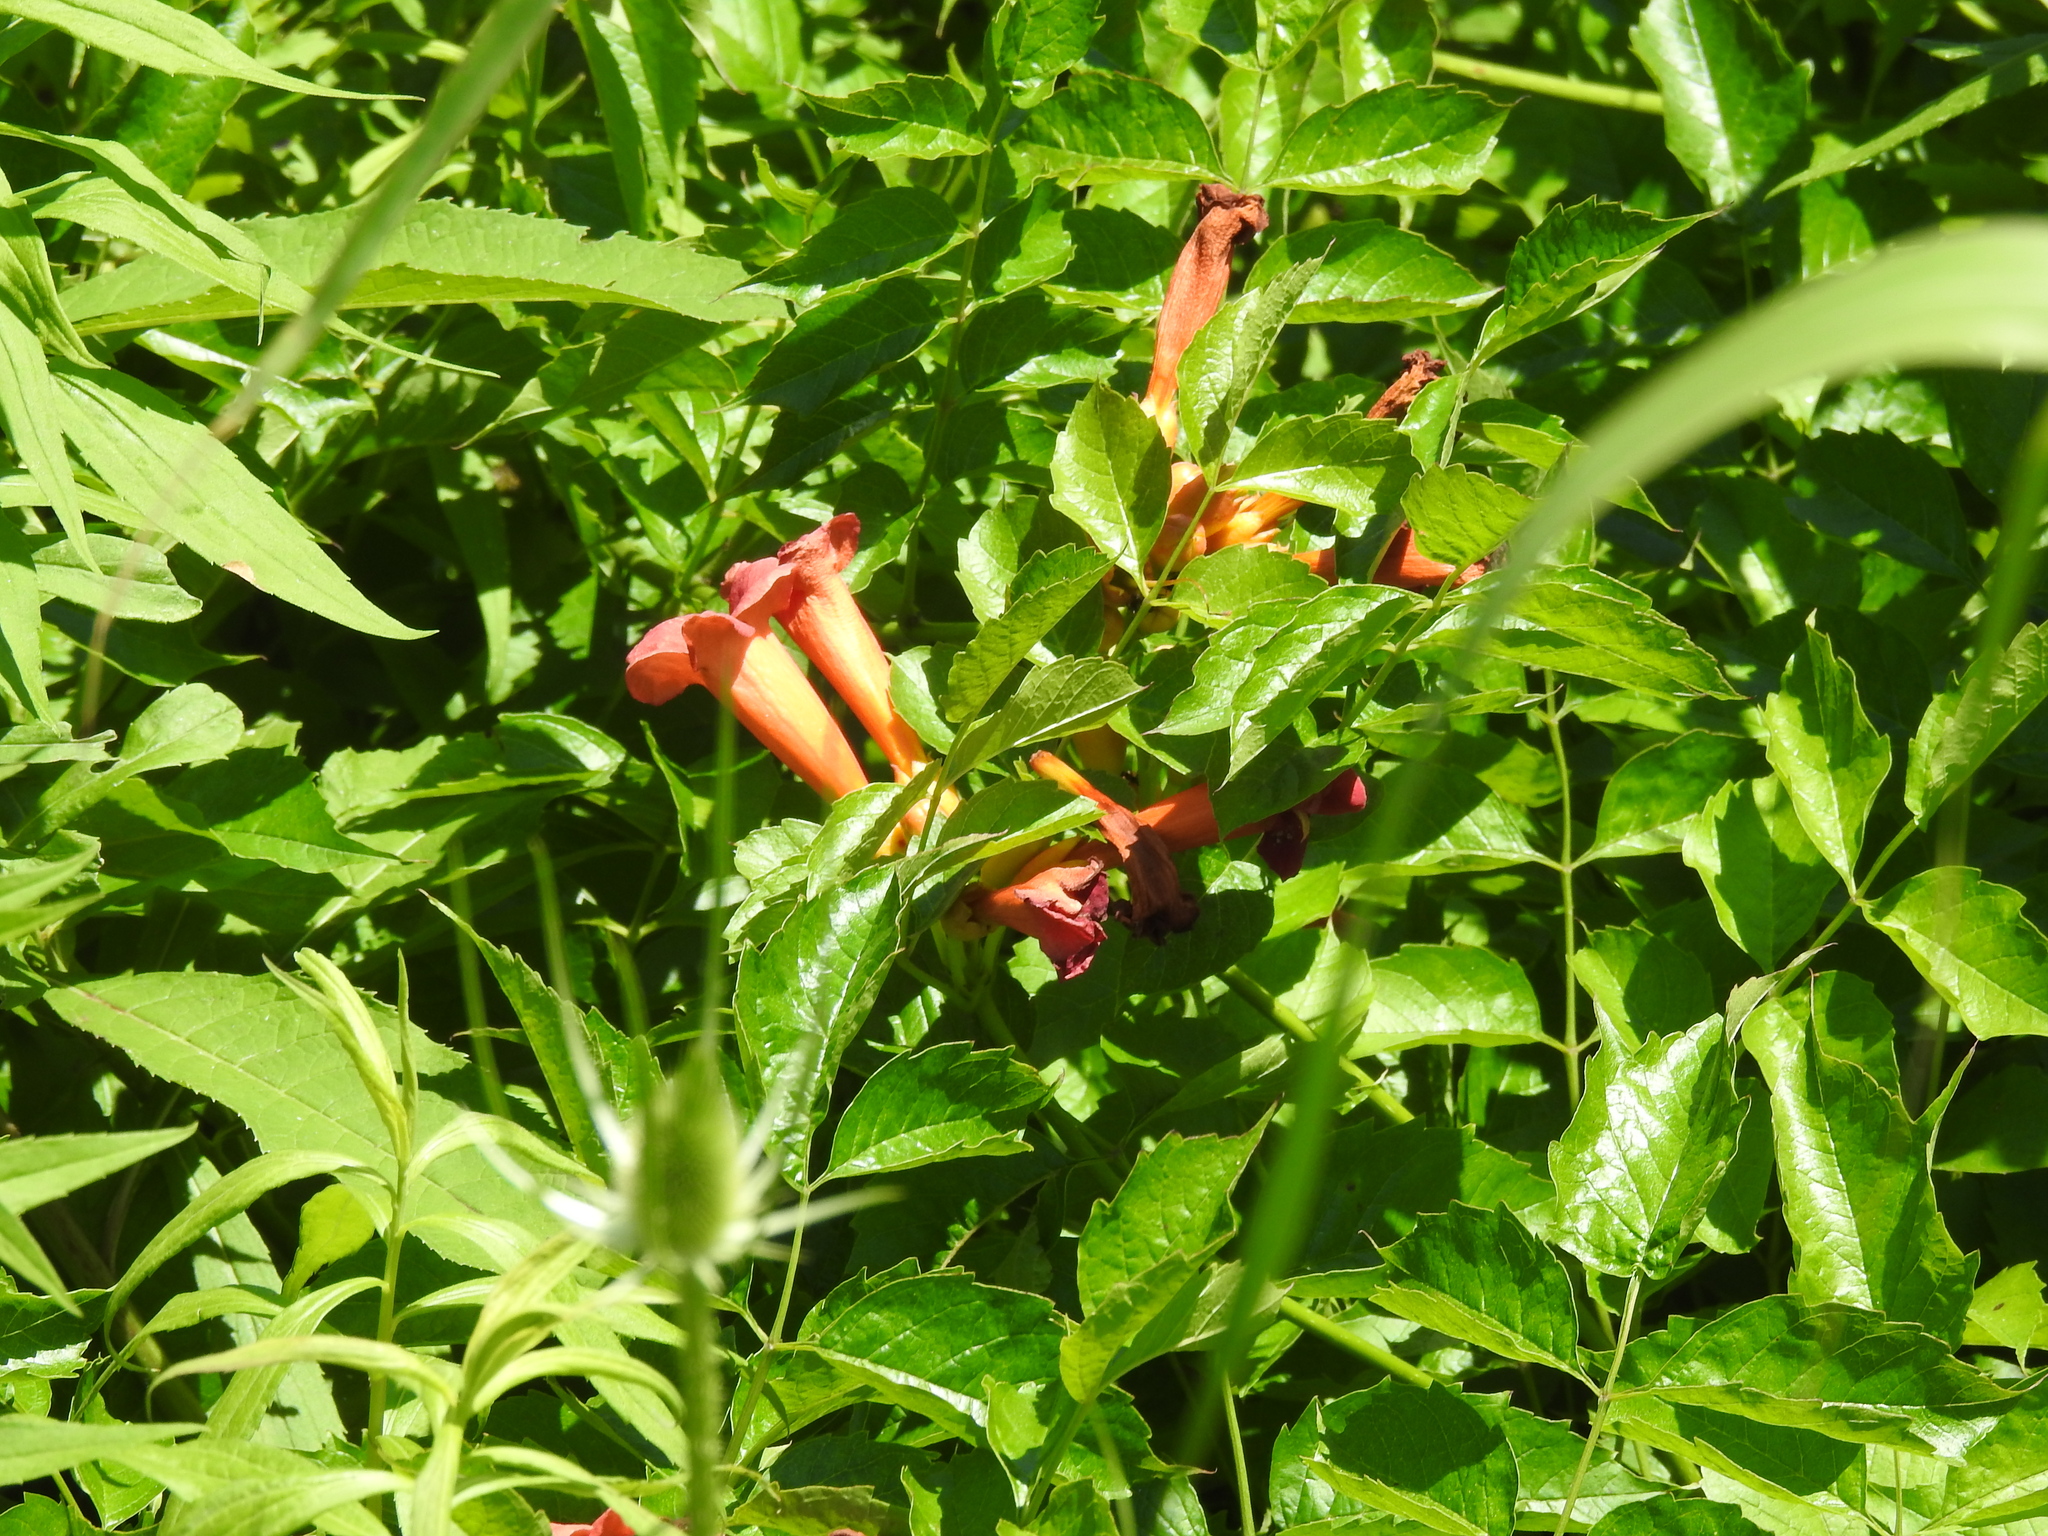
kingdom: Plantae
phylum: Tracheophyta
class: Magnoliopsida
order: Lamiales
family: Bignoniaceae
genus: Campsis
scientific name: Campsis radicans
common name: Trumpet-creeper
